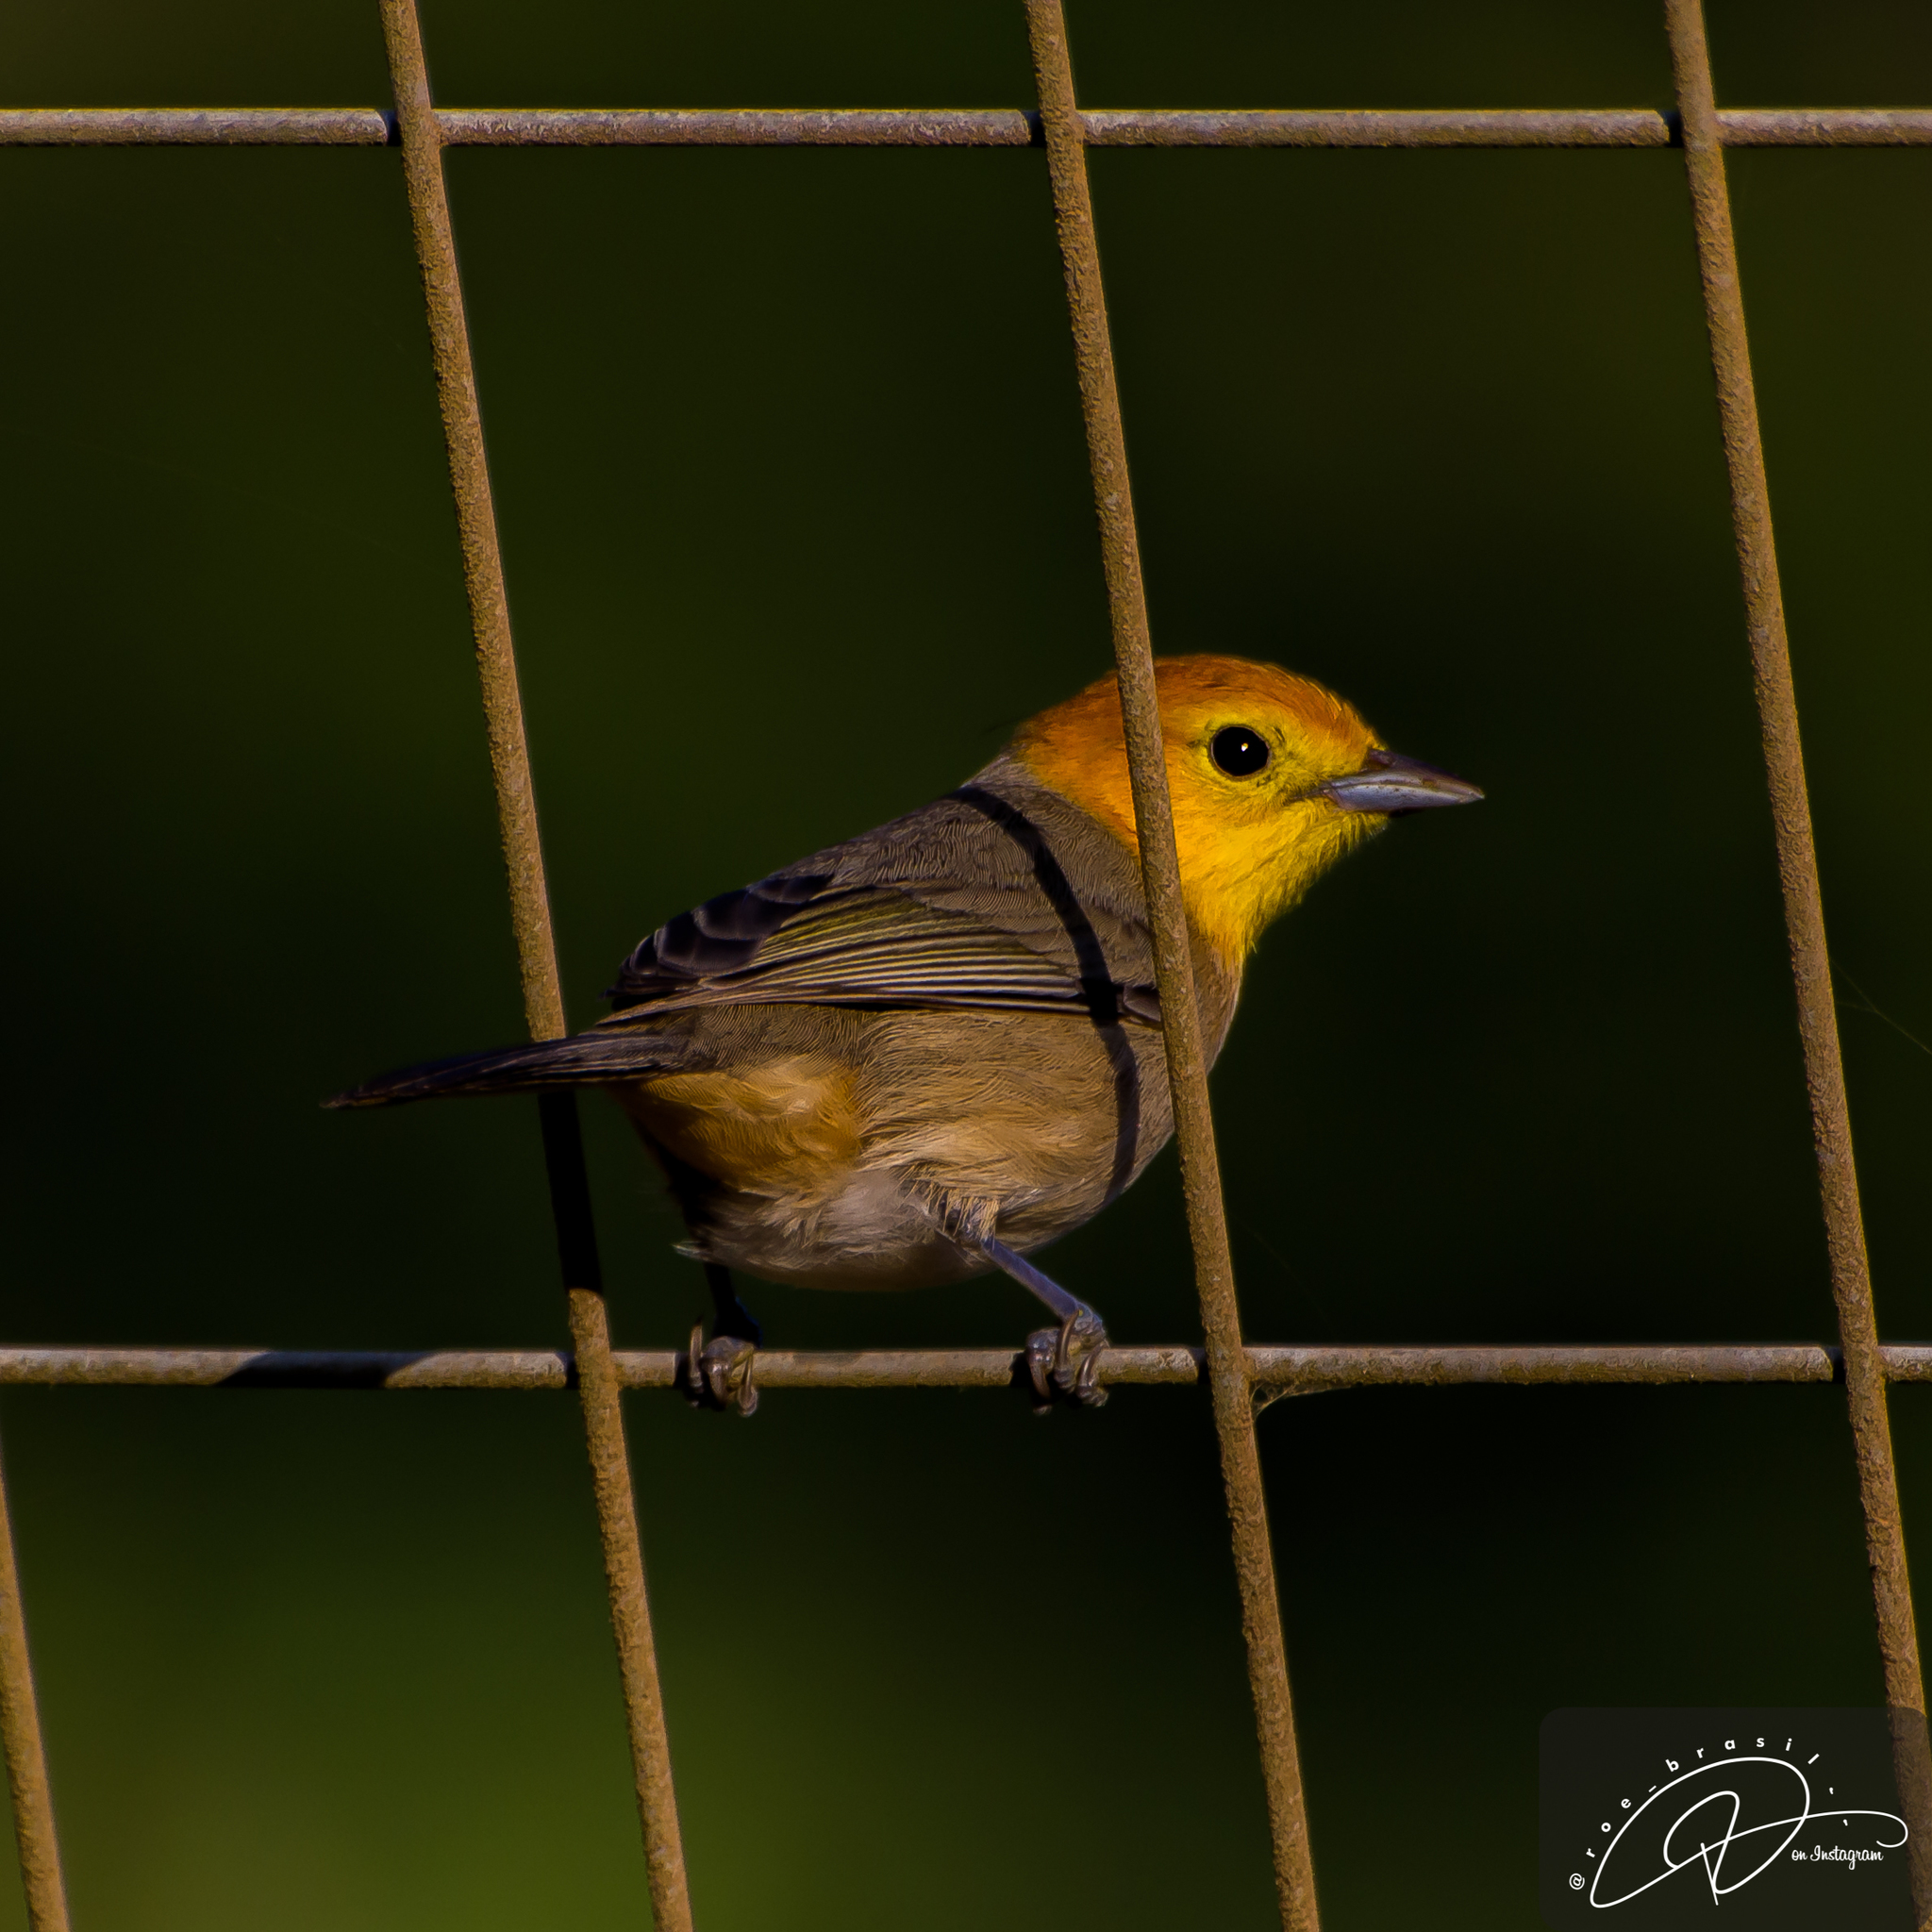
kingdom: Animalia
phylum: Chordata
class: Aves
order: Passeriformes
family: Thraupidae
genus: Thlypopsis
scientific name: Thlypopsis sordida
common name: Orange-headed tanager
